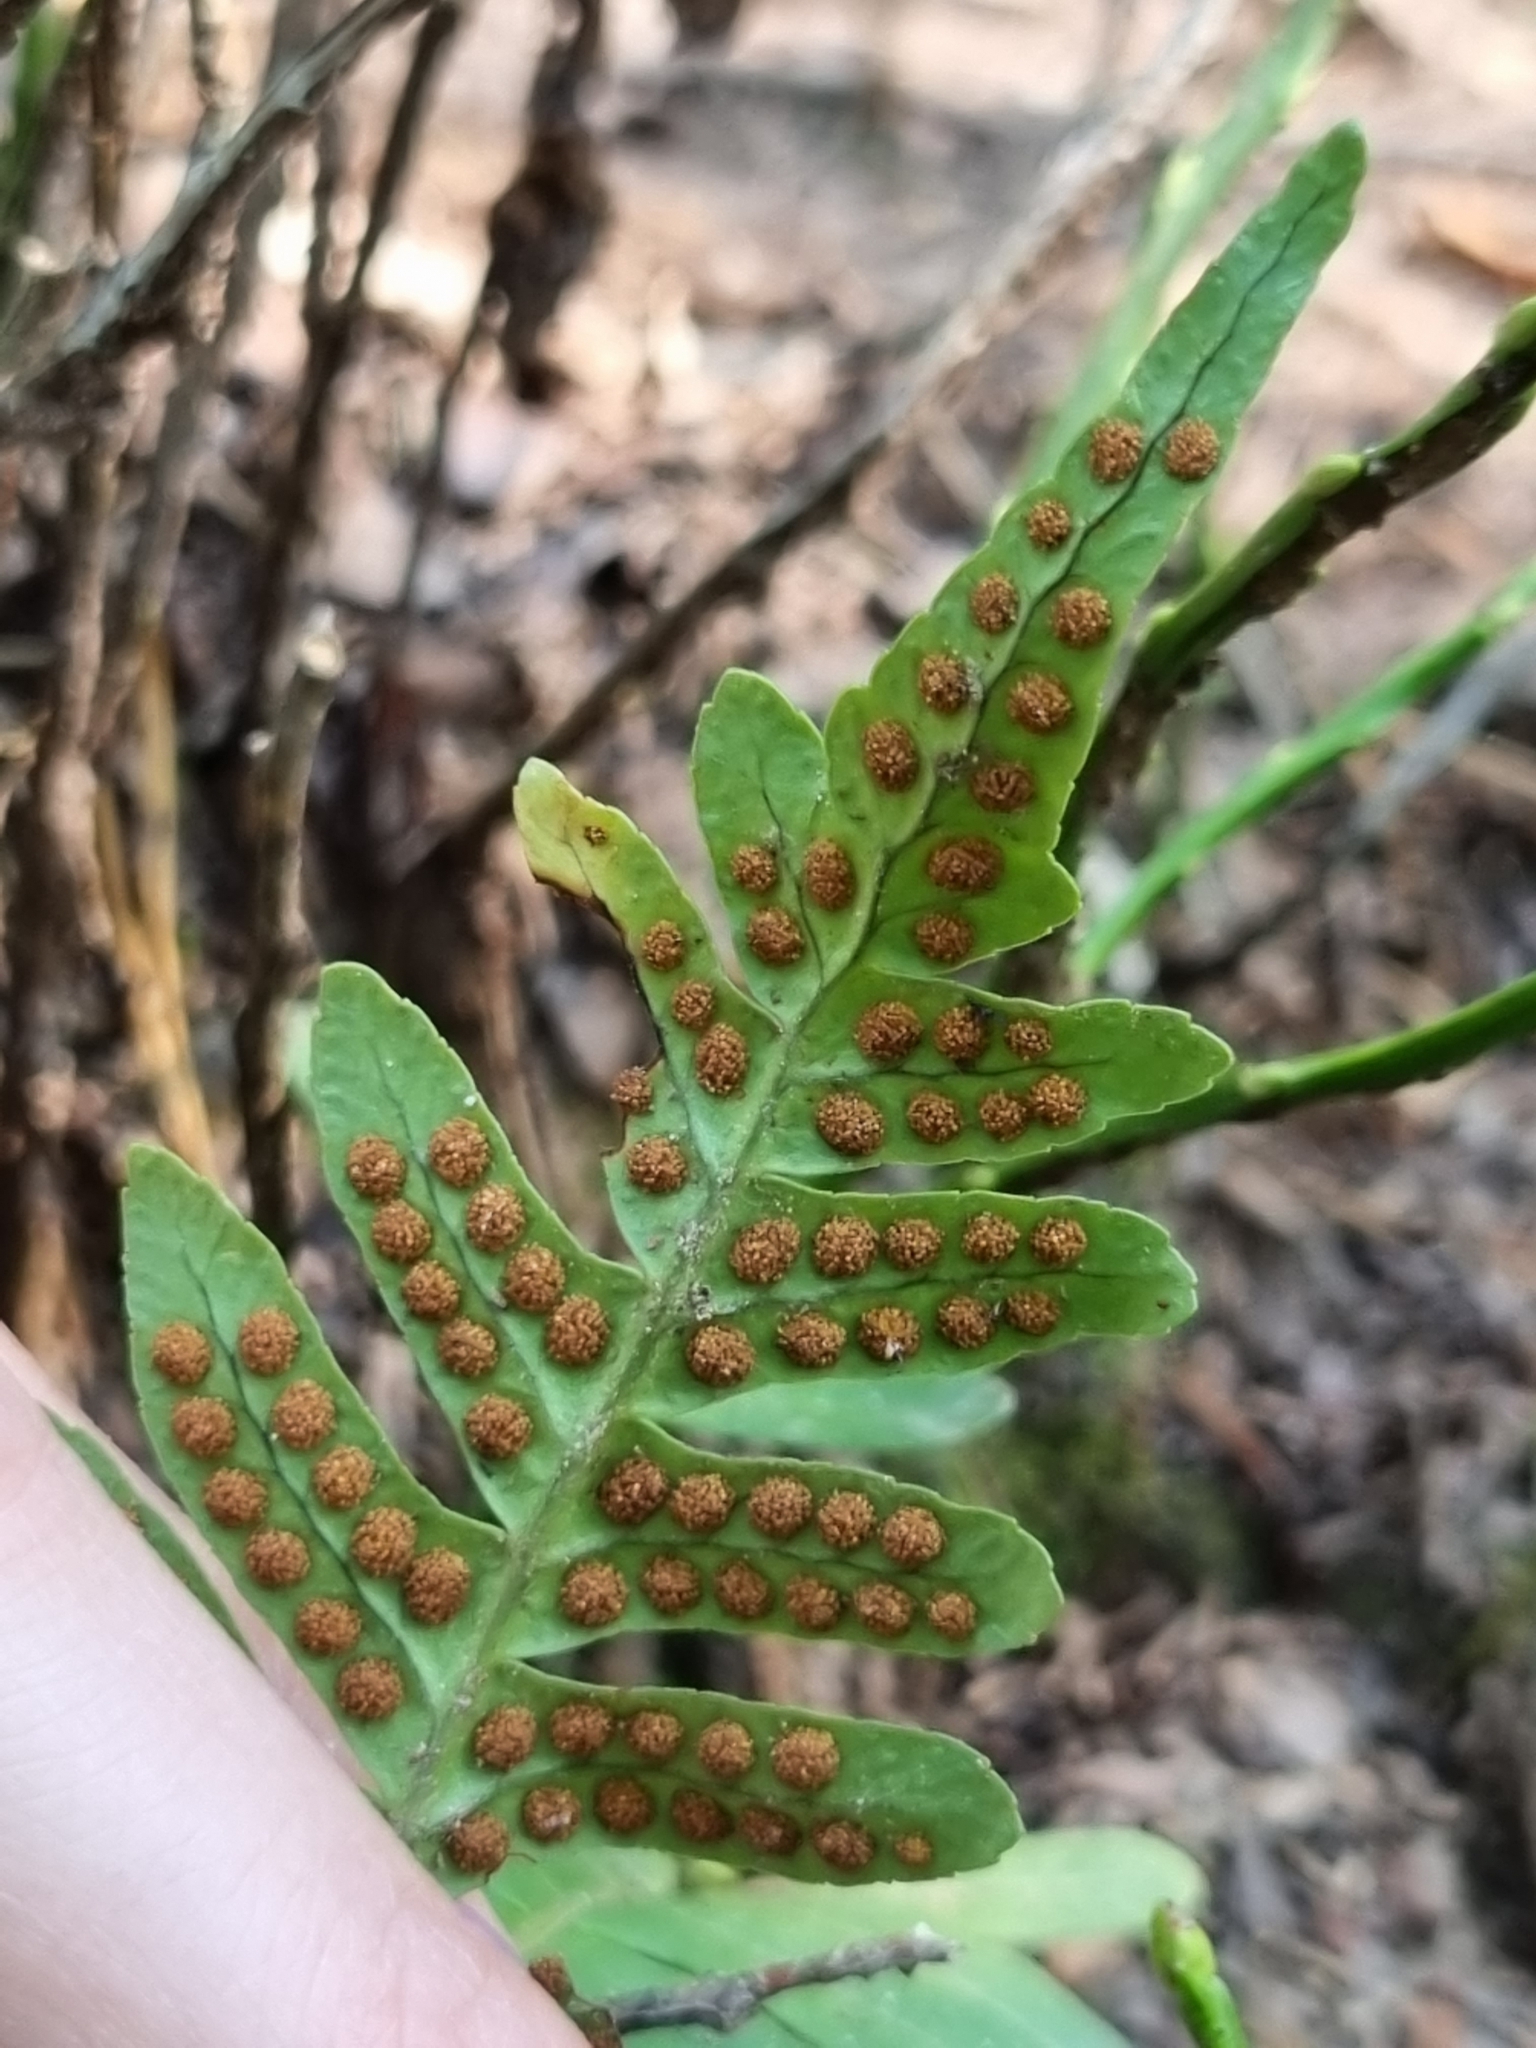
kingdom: Plantae
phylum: Tracheophyta
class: Polypodiopsida
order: Polypodiales
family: Polypodiaceae
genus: Polypodium
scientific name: Polypodium vulgare
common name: Common polypody
